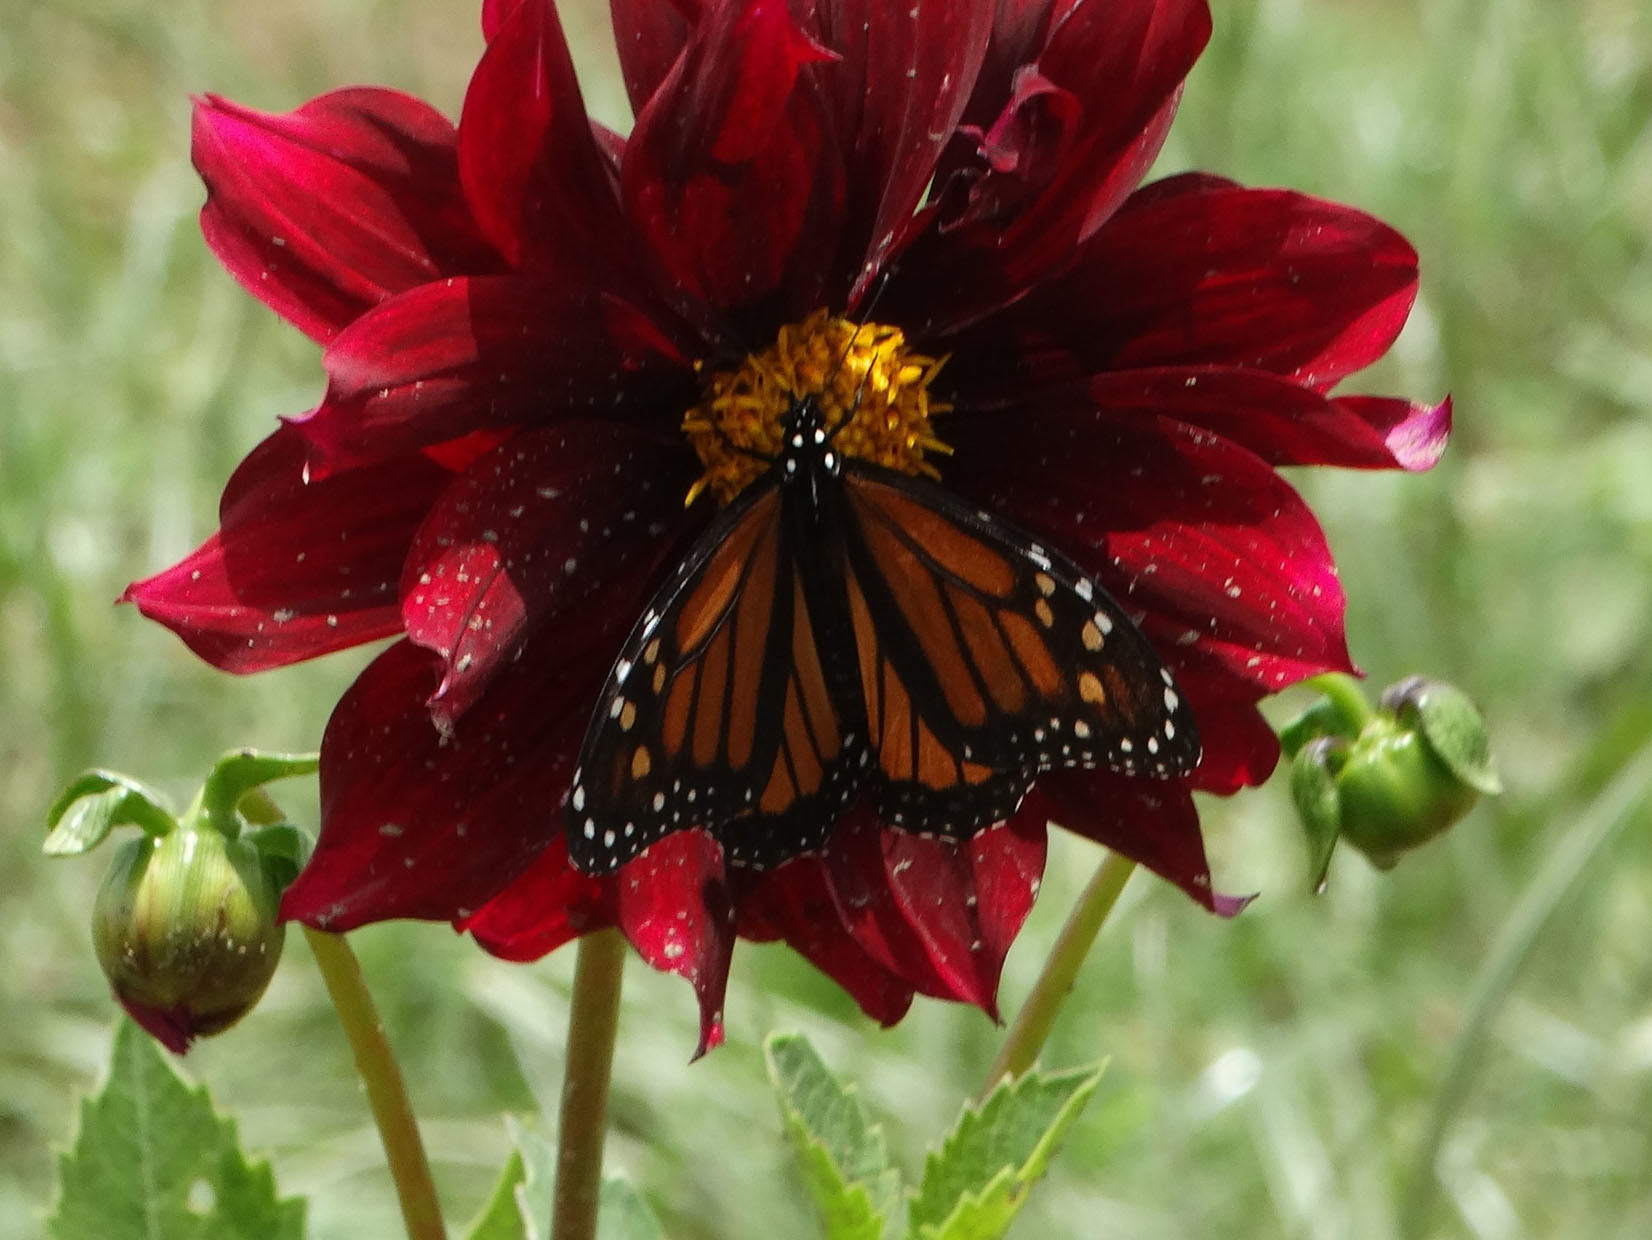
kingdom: Animalia
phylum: Arthropoda
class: Insecta
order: Lepidoptera
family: Nymphalidae
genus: Danaus
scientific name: Danaus plexippus
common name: Monarch
